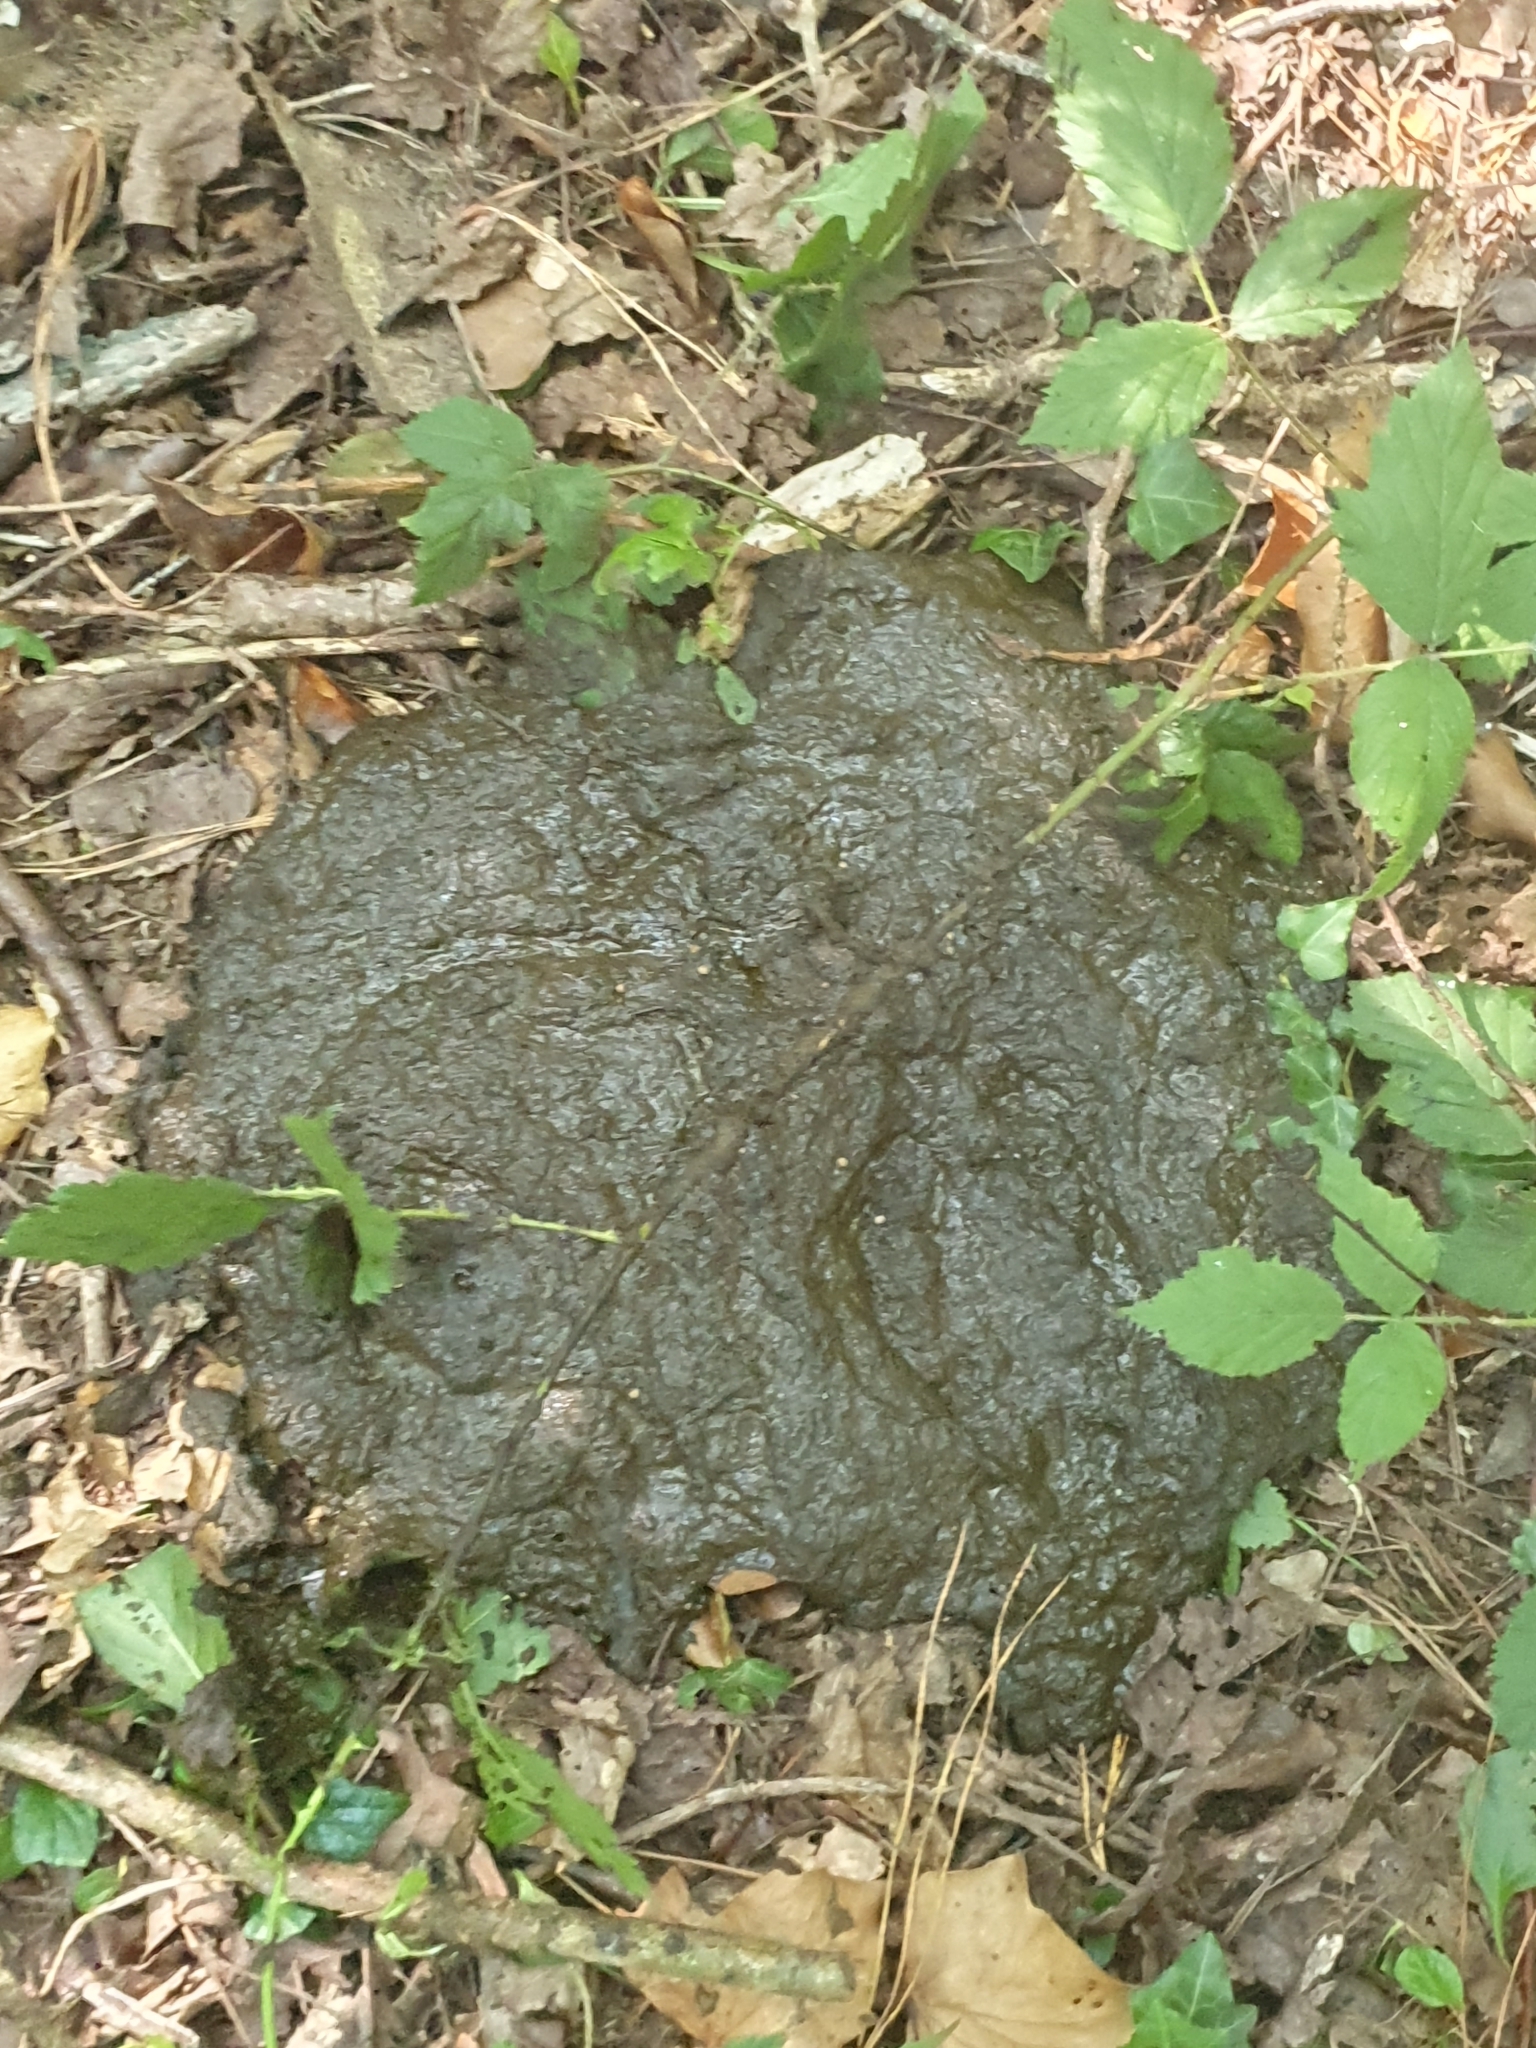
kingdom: Animalia
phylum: Chordata
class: Mammalia
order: Artiodactyla
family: Bovidae
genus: Bos
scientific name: Bos taurus
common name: Domesticated cattle
